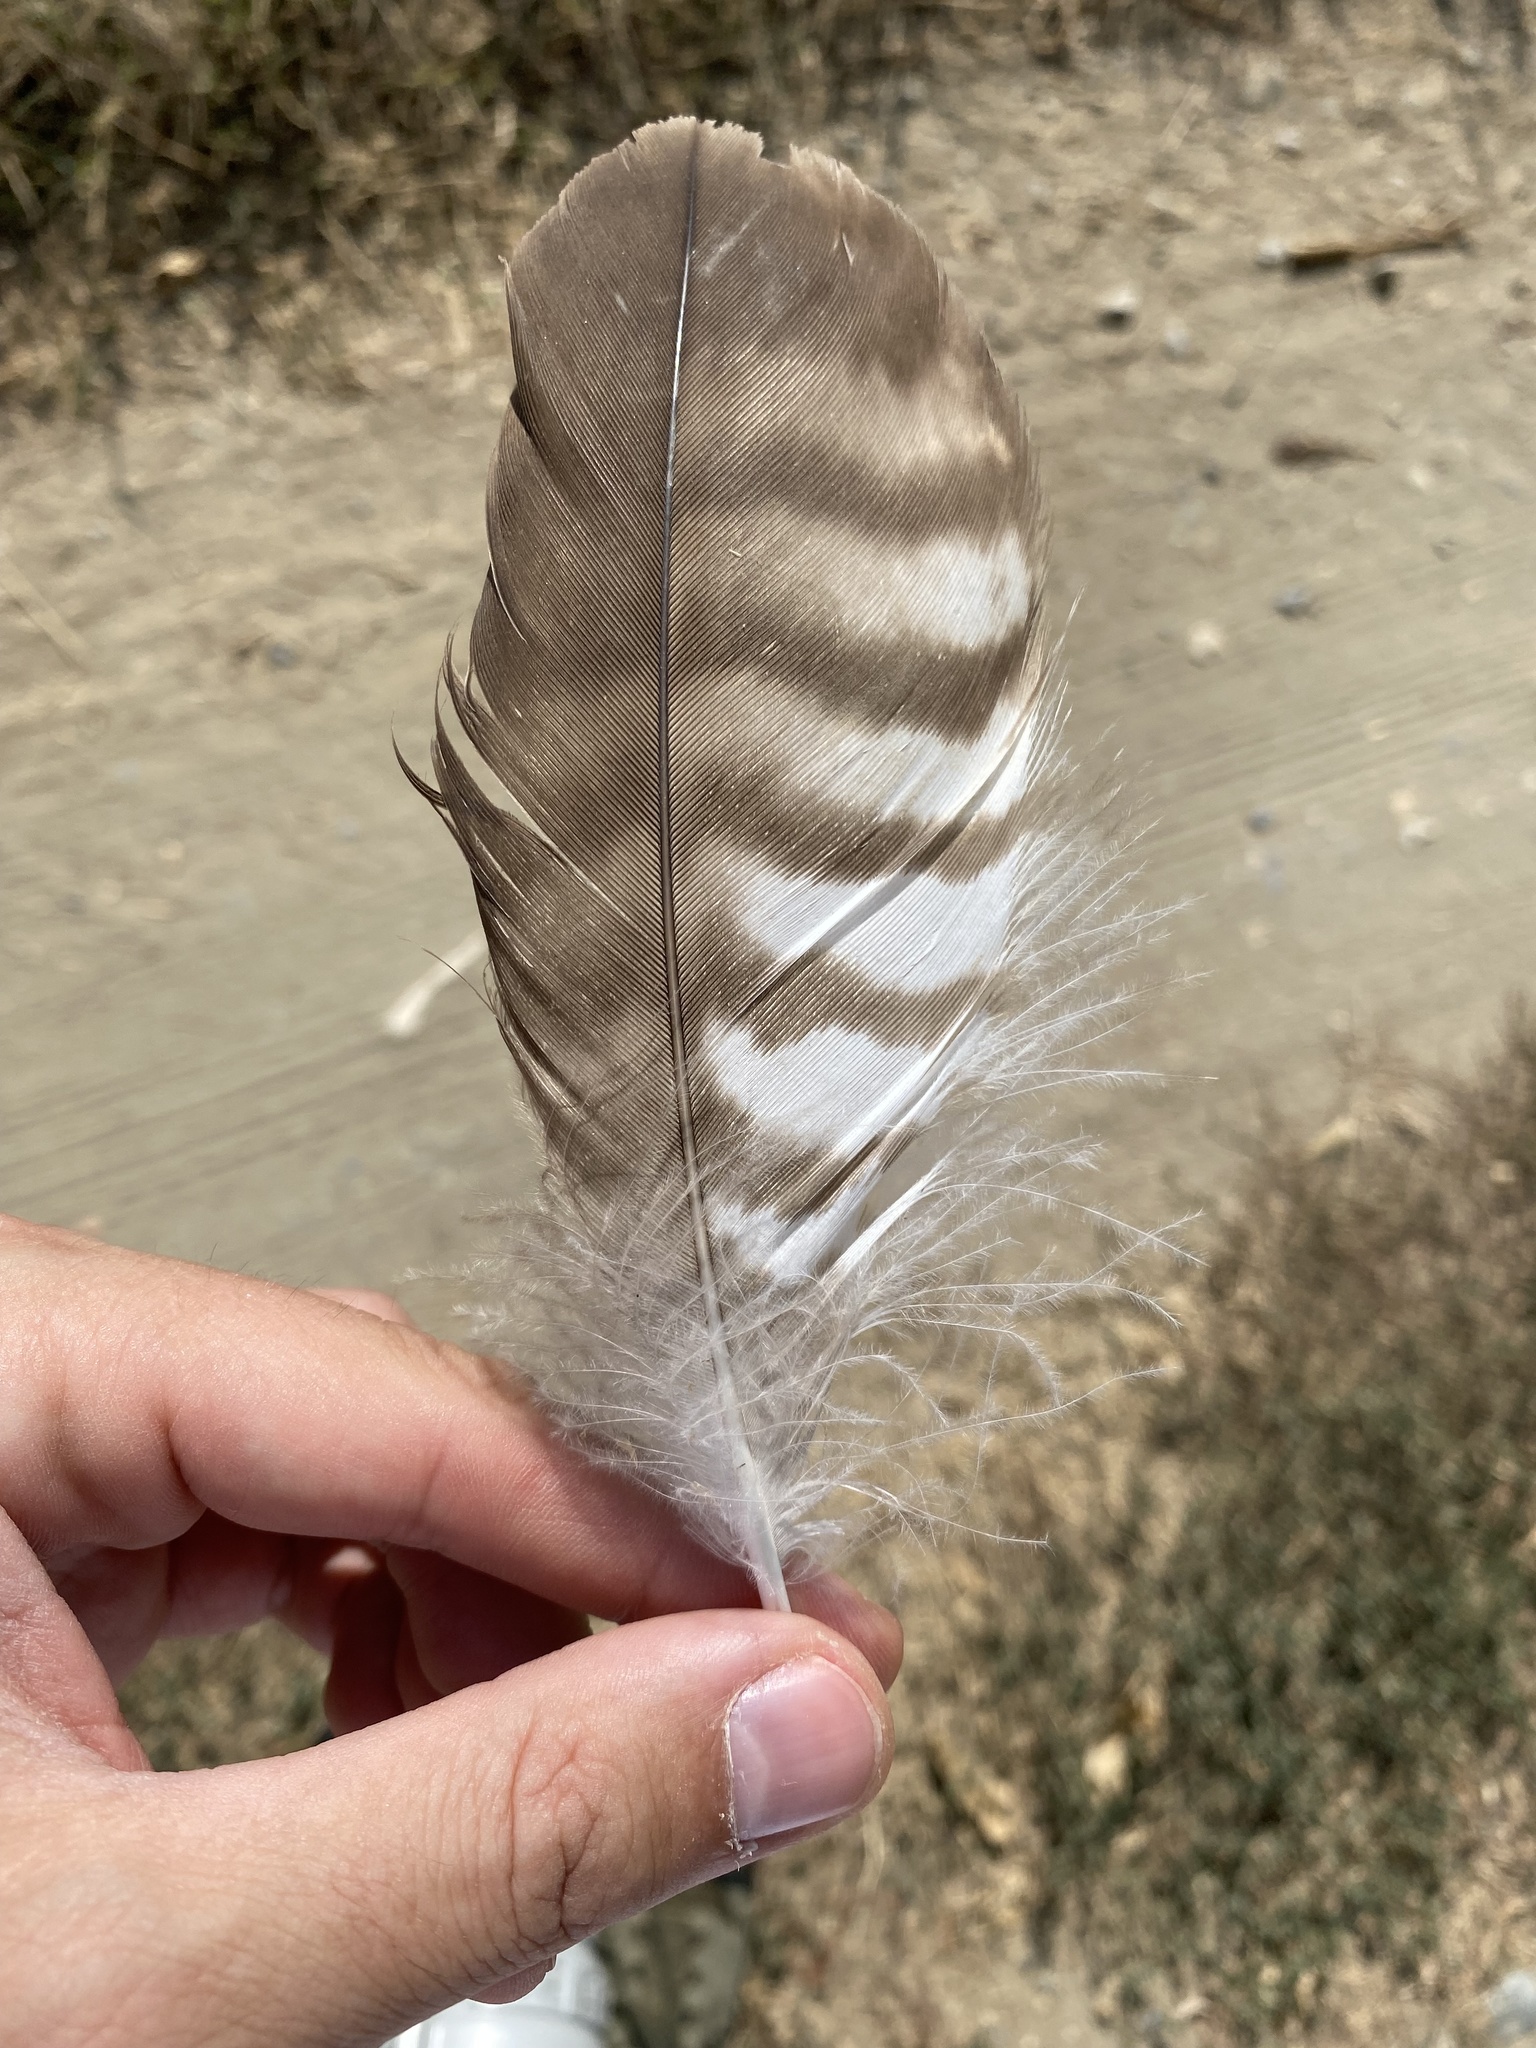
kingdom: Animalia
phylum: Chordata
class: Aves
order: Accipitriformes
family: Accipitridae
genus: Buteo
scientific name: Buteo buteo
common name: Common buzzard
